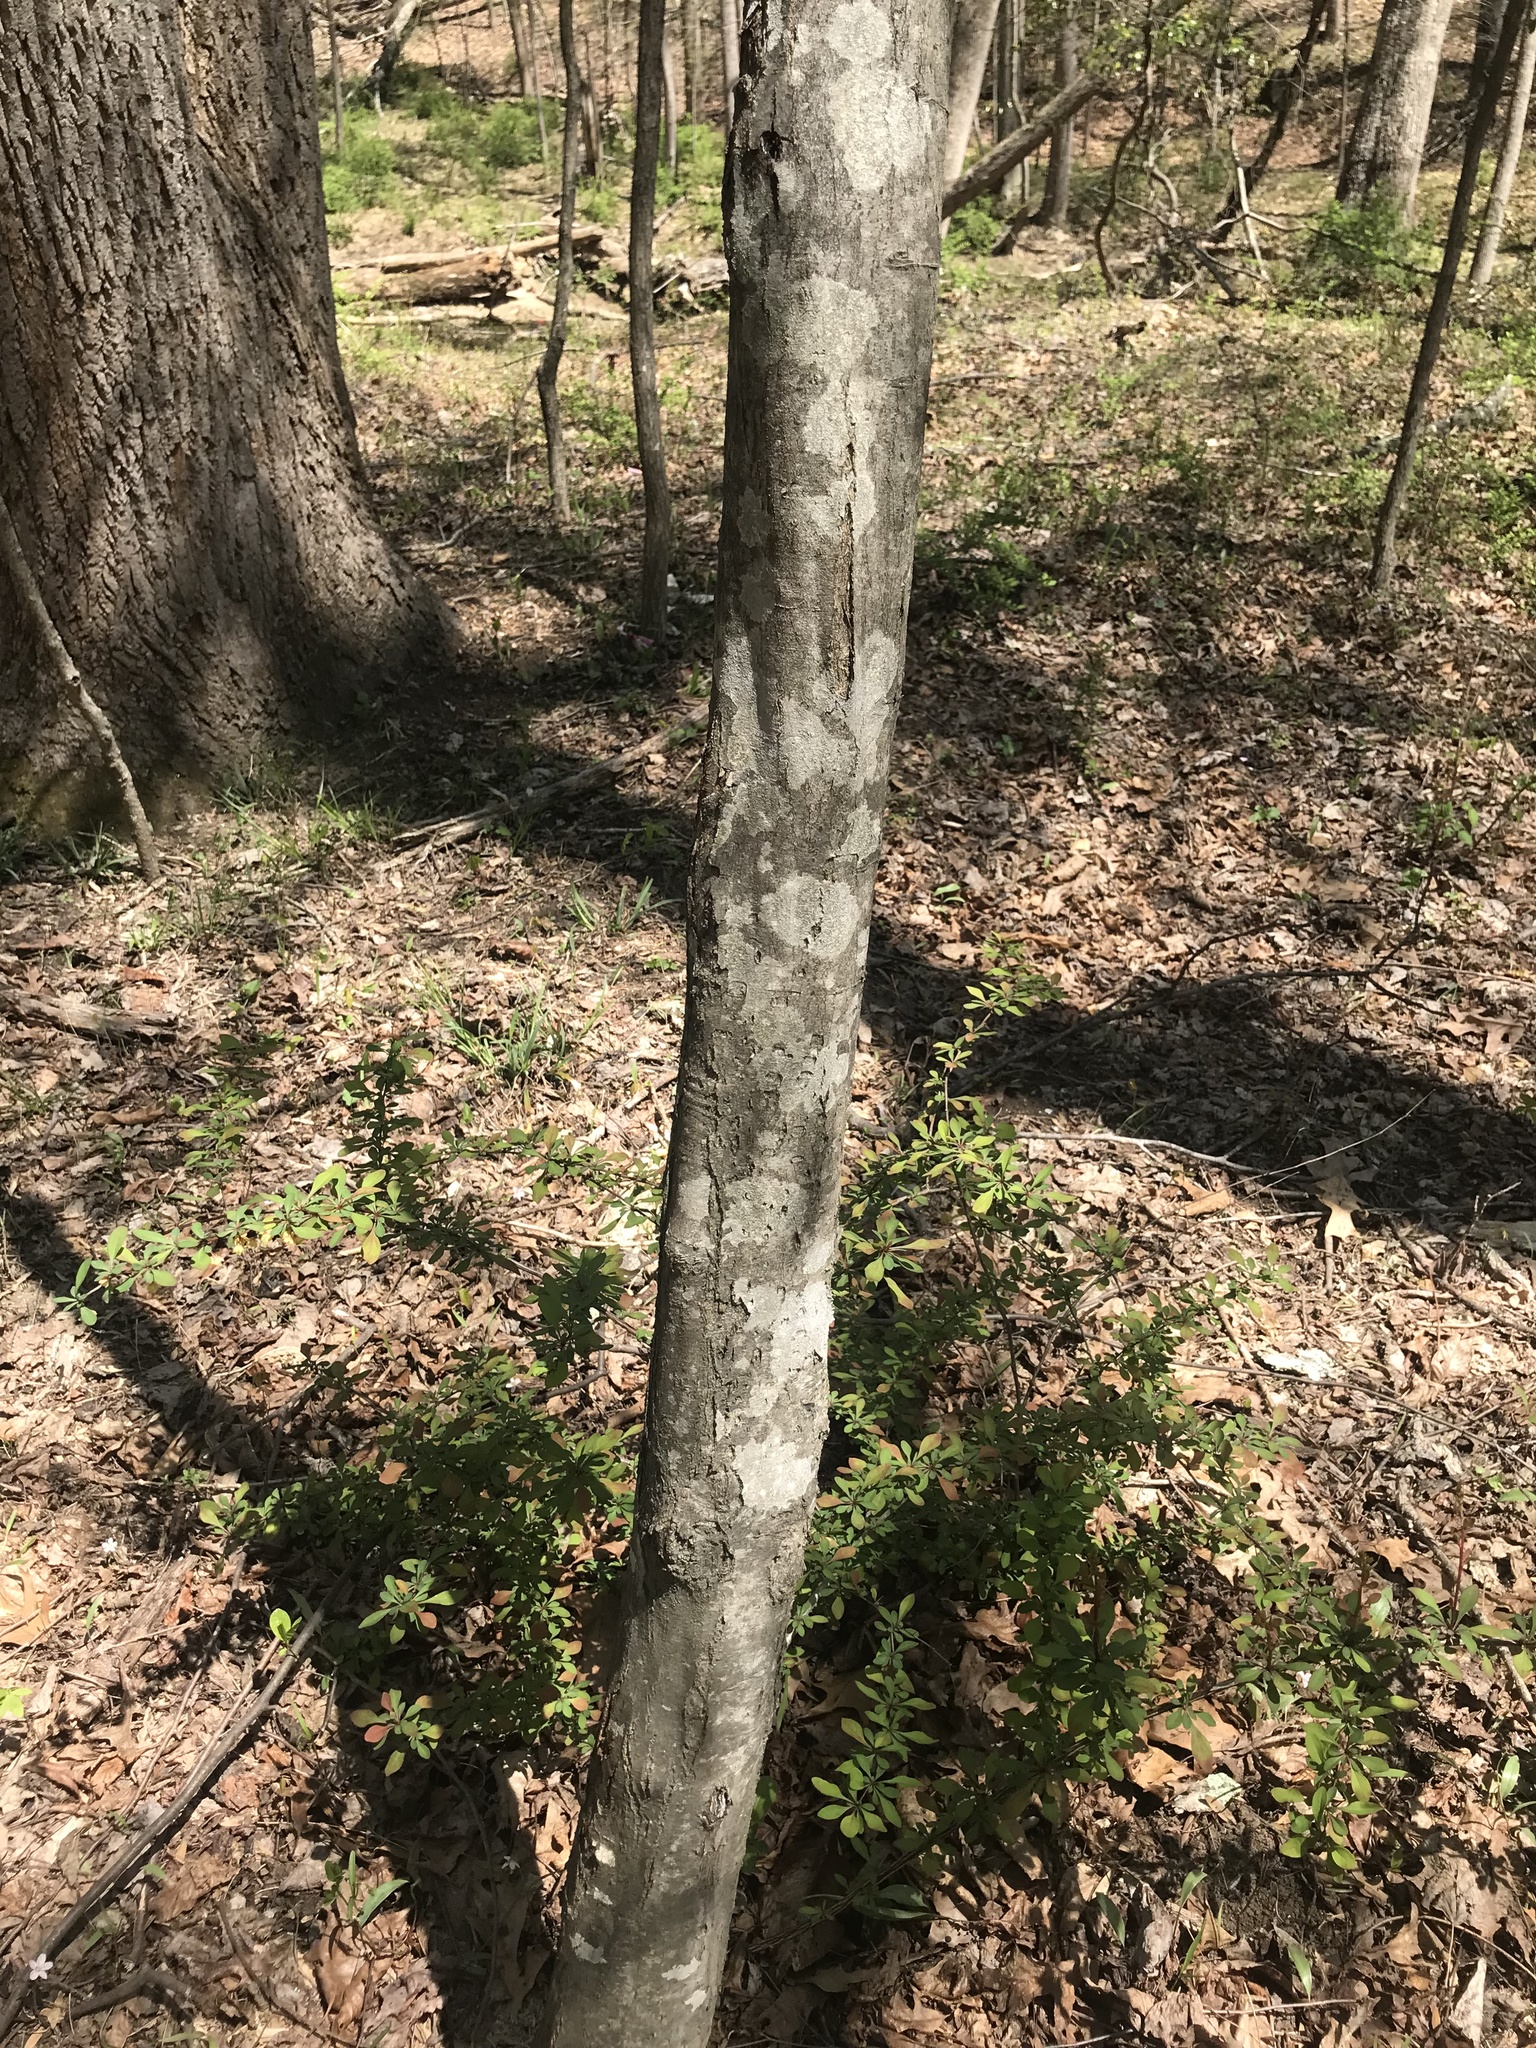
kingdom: Plantae
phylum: Tracheophyta
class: Magnoliopsida
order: Fagales
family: Betulaceae
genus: Carpinus
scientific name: Carpinus caroliniana
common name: American hornbeam
